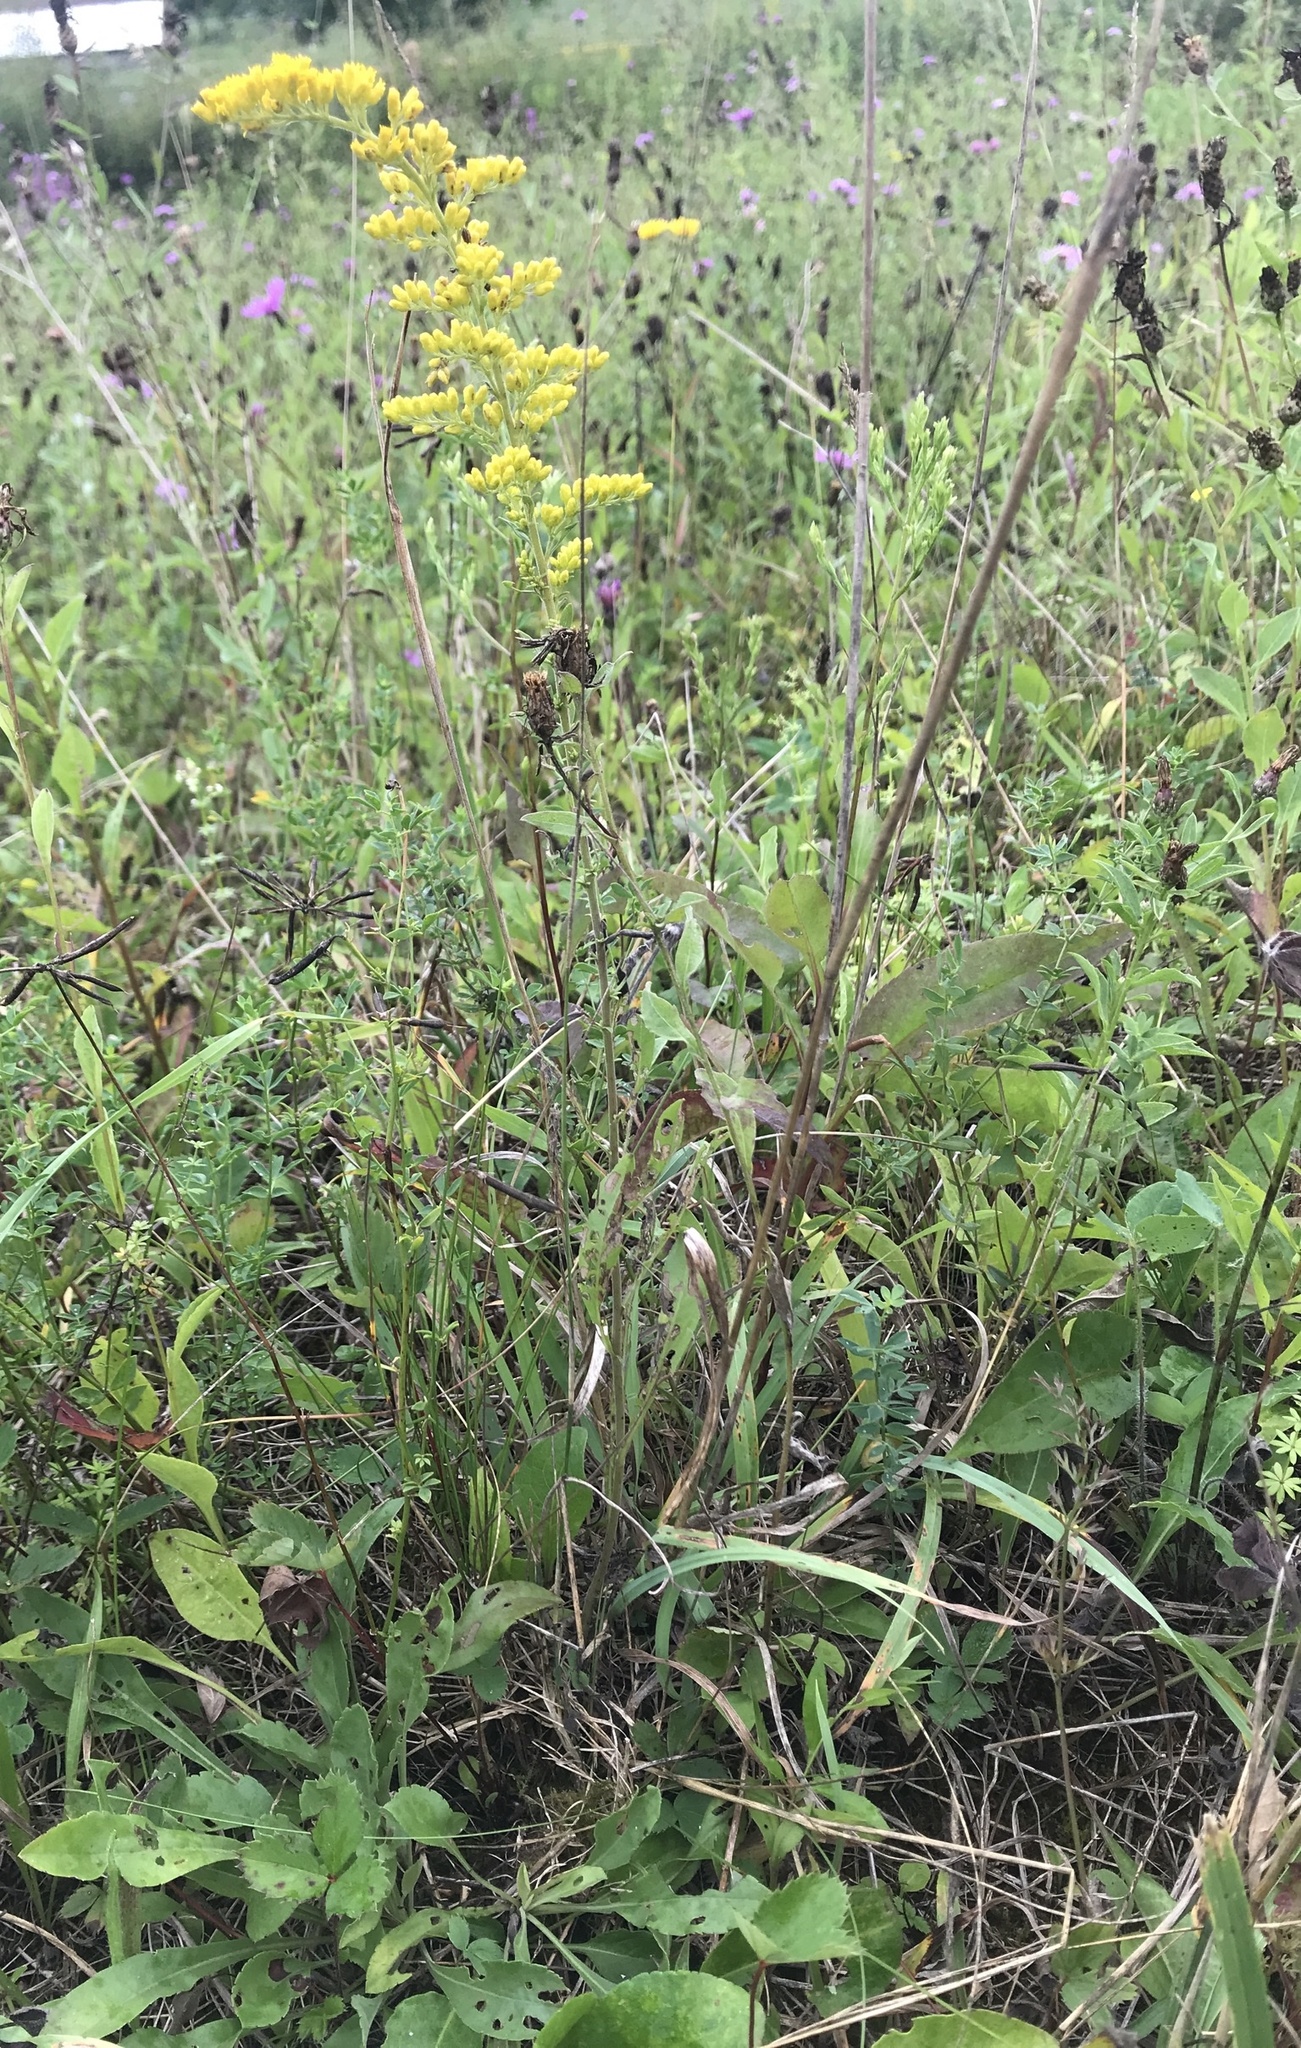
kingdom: Plantae
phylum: Tracheophyta
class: Magnoliopsida
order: Asterales
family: Asteraceae
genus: Solidago
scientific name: Solidago nemoralis
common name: Grey goldenrod
